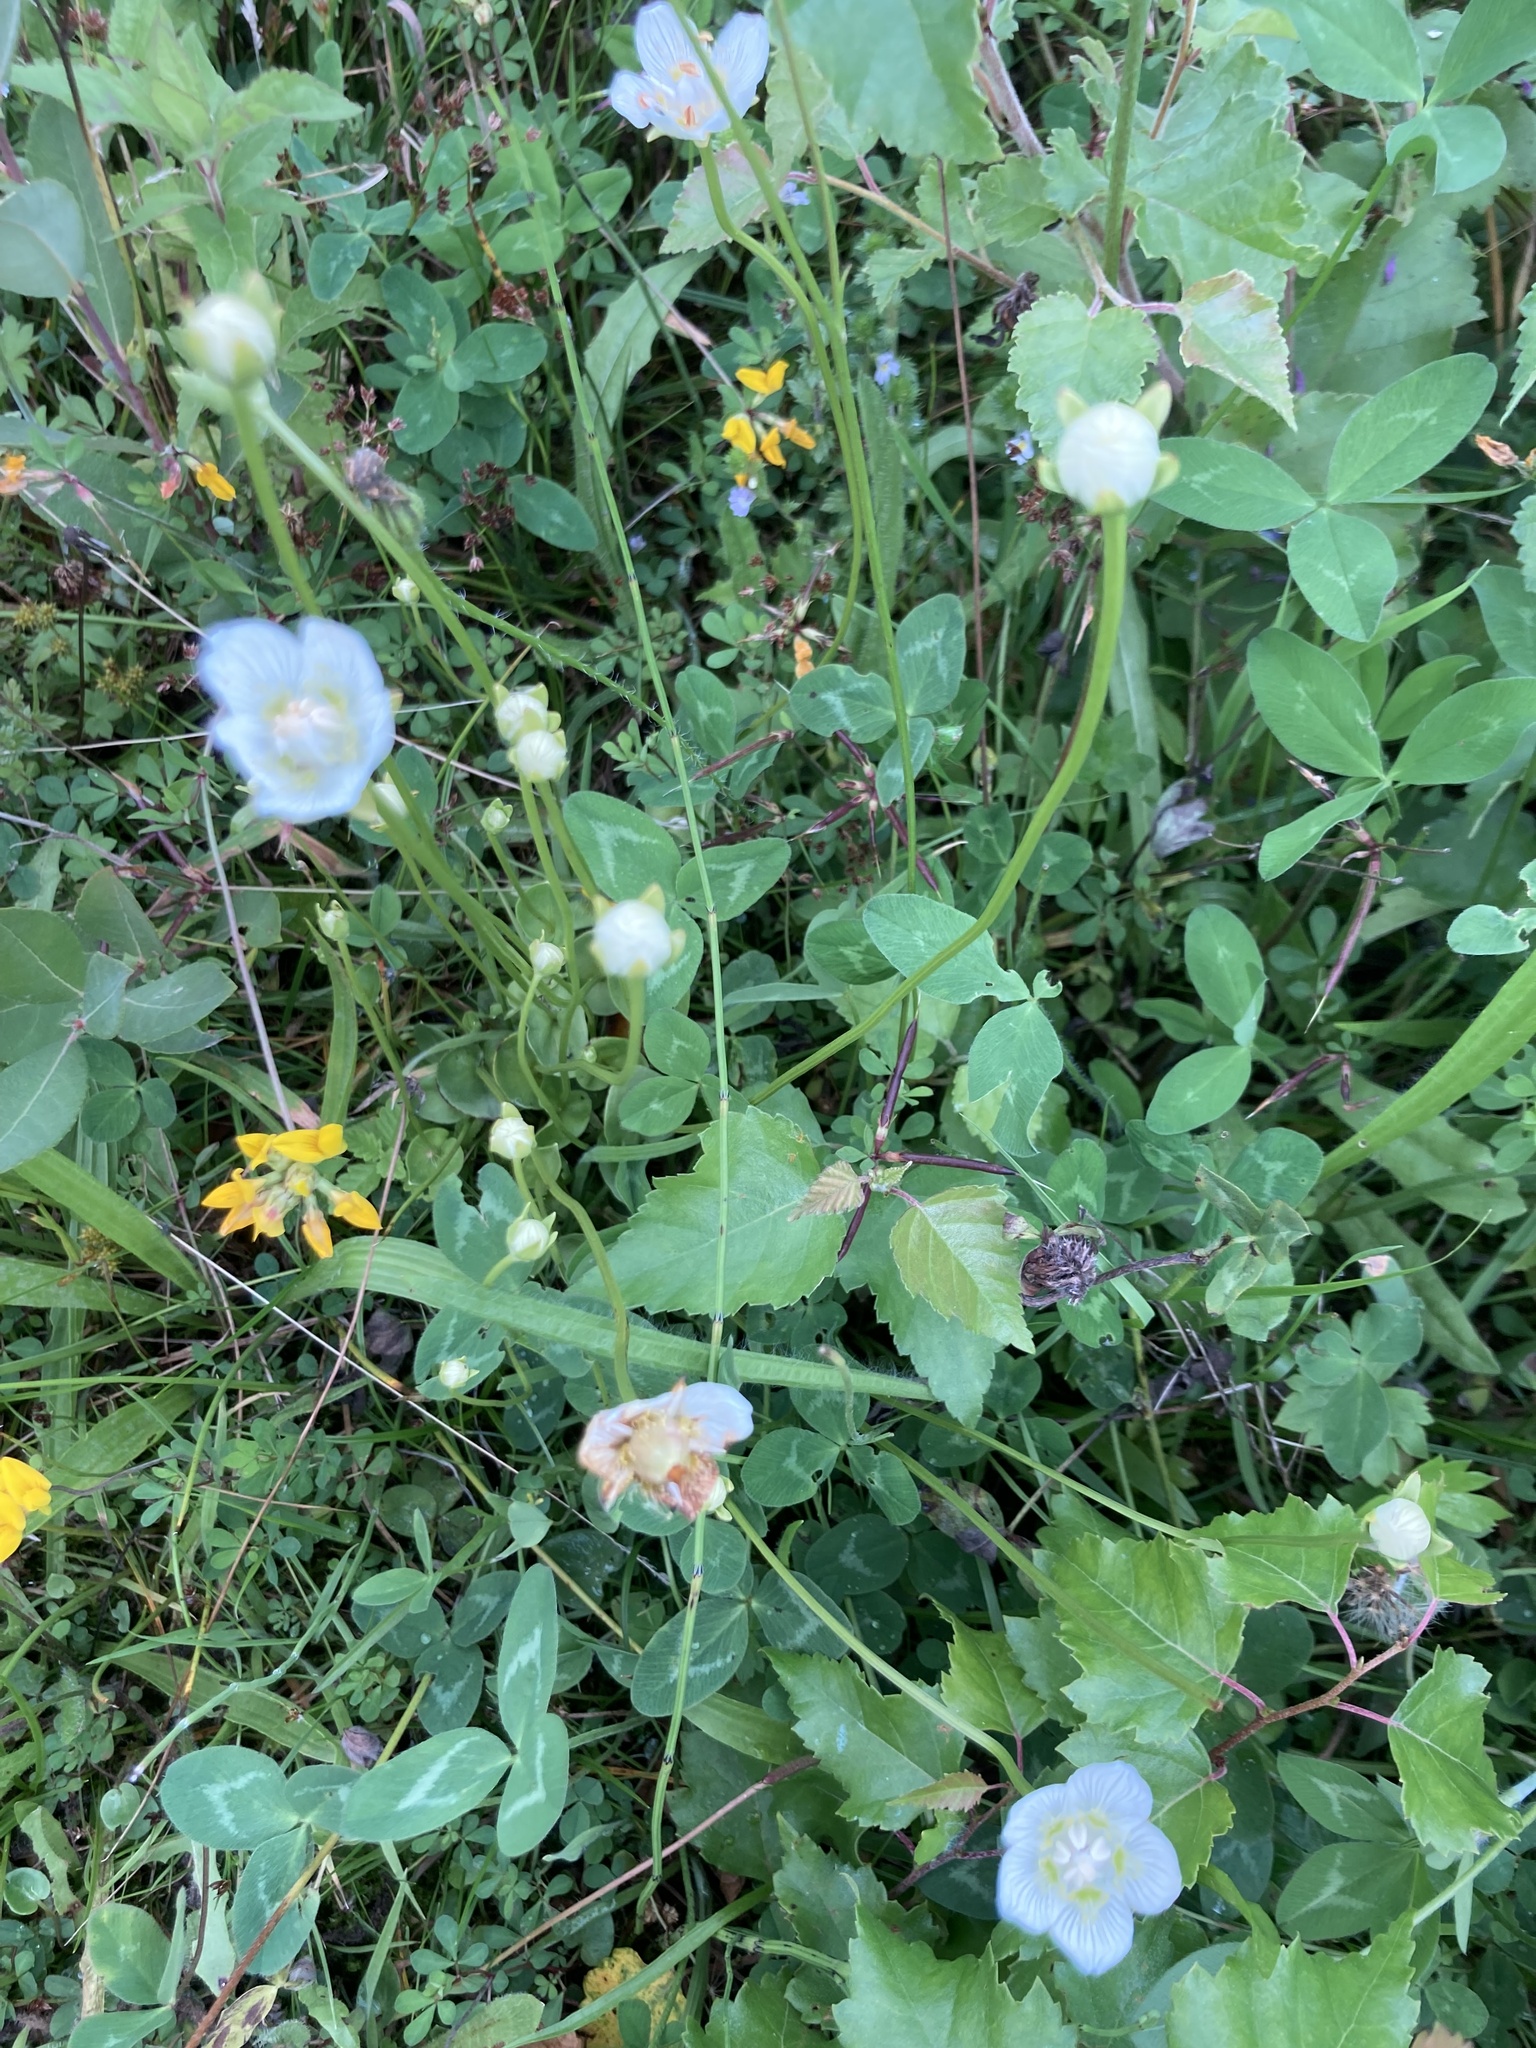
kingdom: Plantae
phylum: Tracheophyta
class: Magnoliopsida
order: Celastrales
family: Parnassiaceae
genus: Parnassia
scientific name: Parnassia palustris
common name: Grass-of-parnassus
